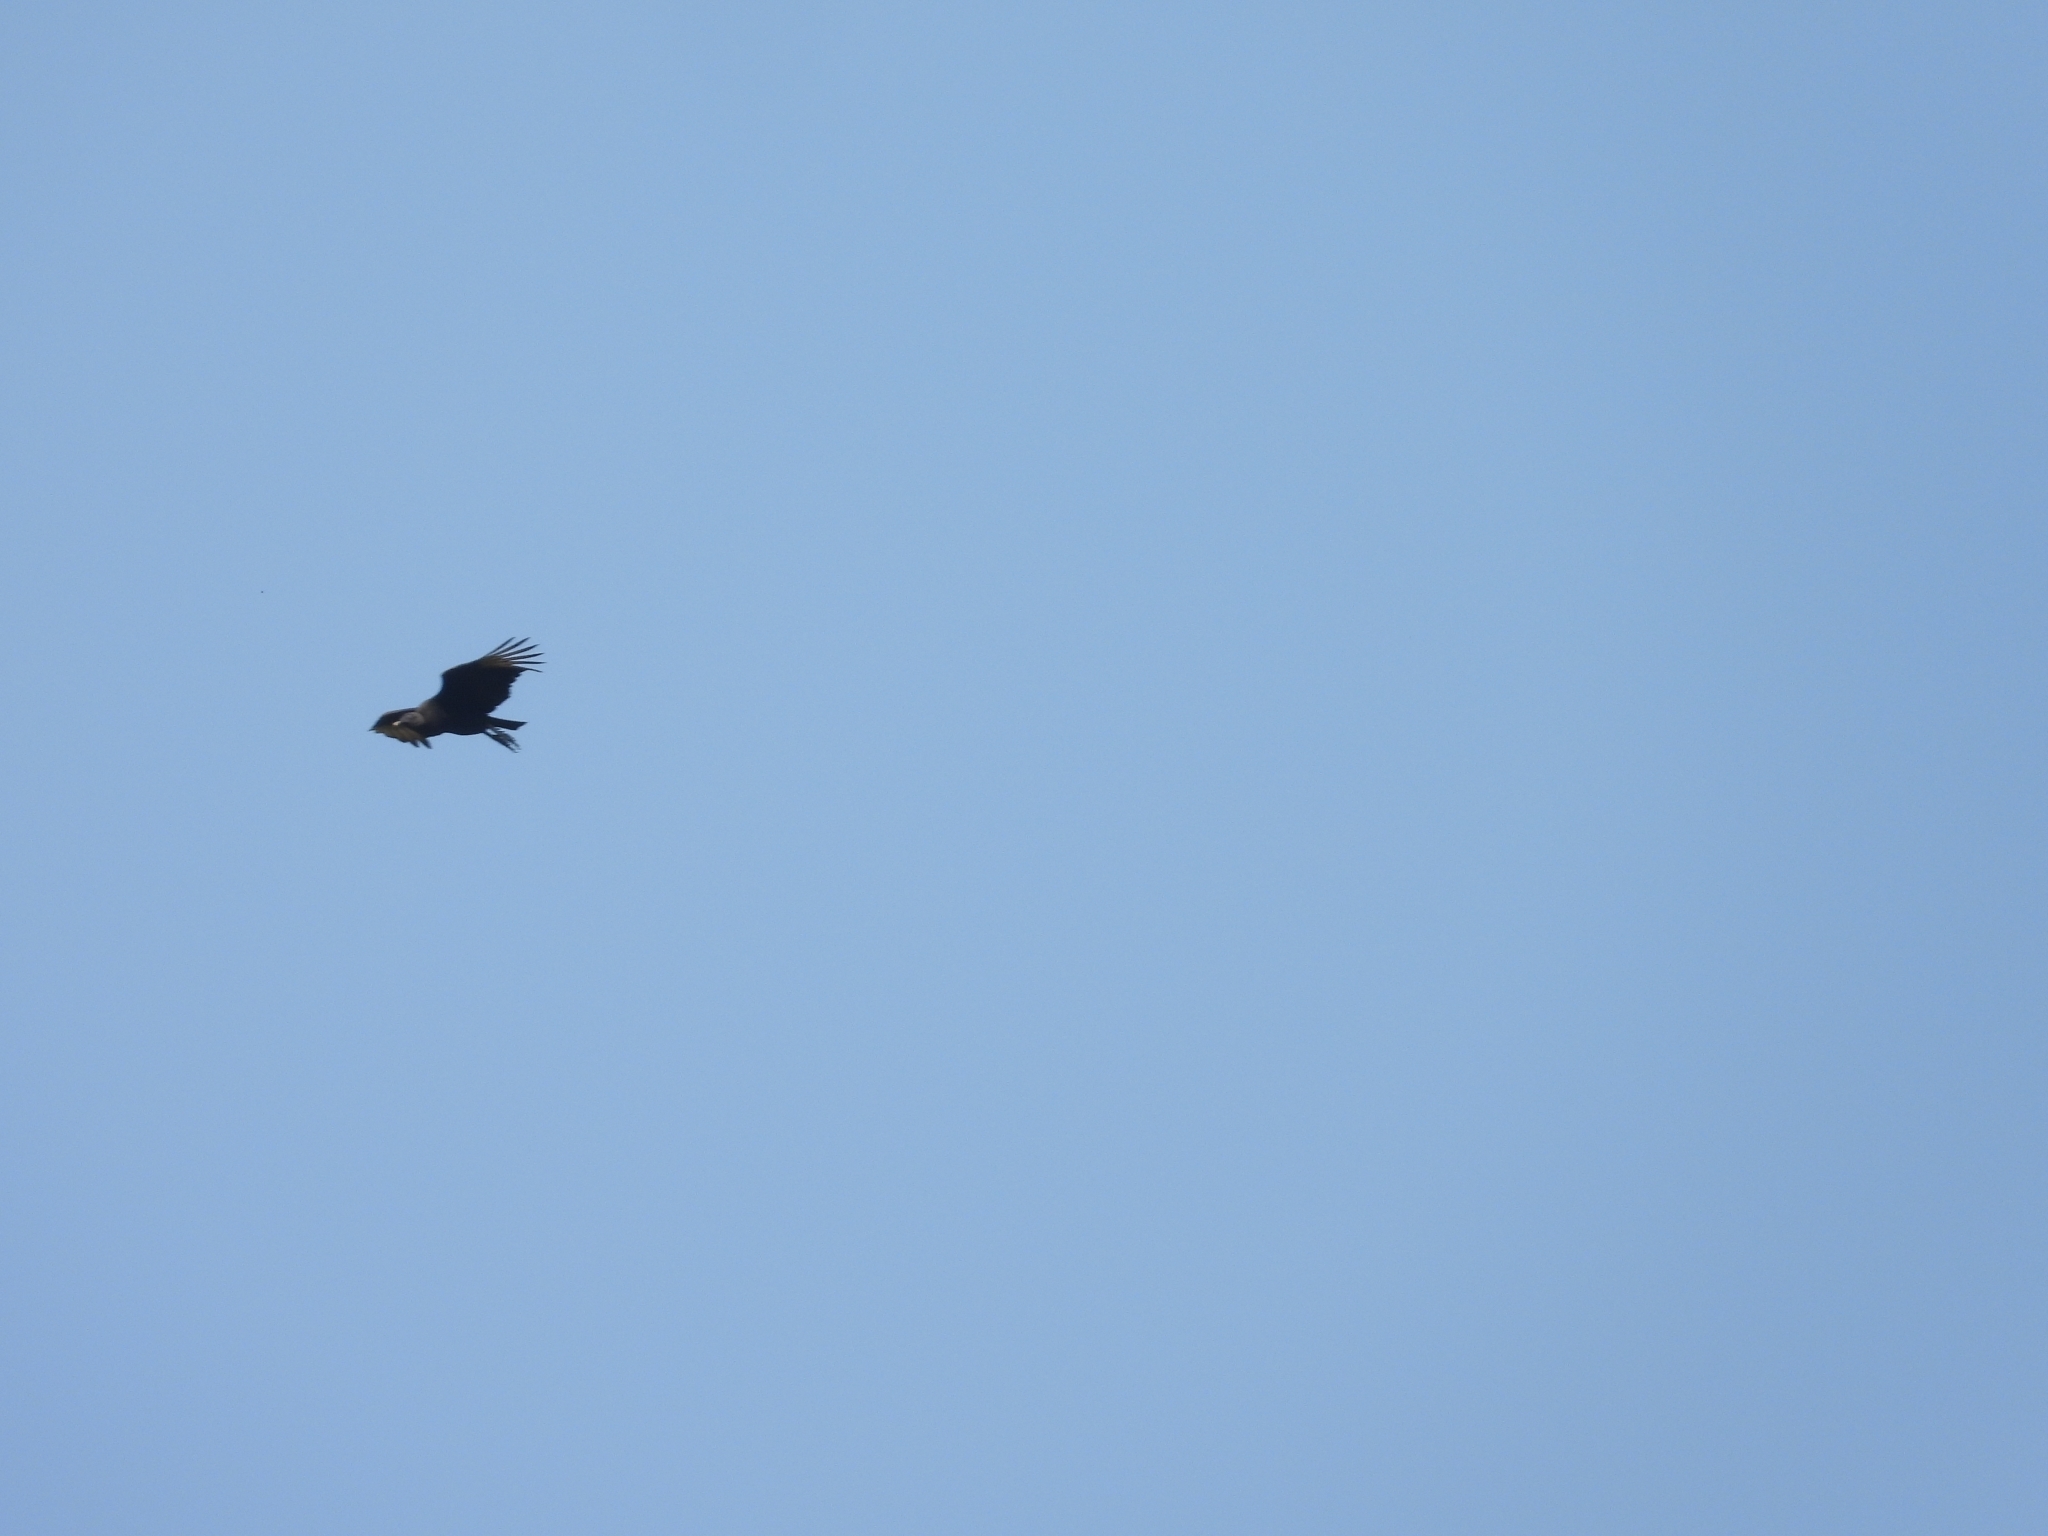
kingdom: Animalia
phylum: Chordata
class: Aves
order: Accipitriformes
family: Cathartidae
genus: Coragyps
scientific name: Coragyps atratus
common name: Black vulture
